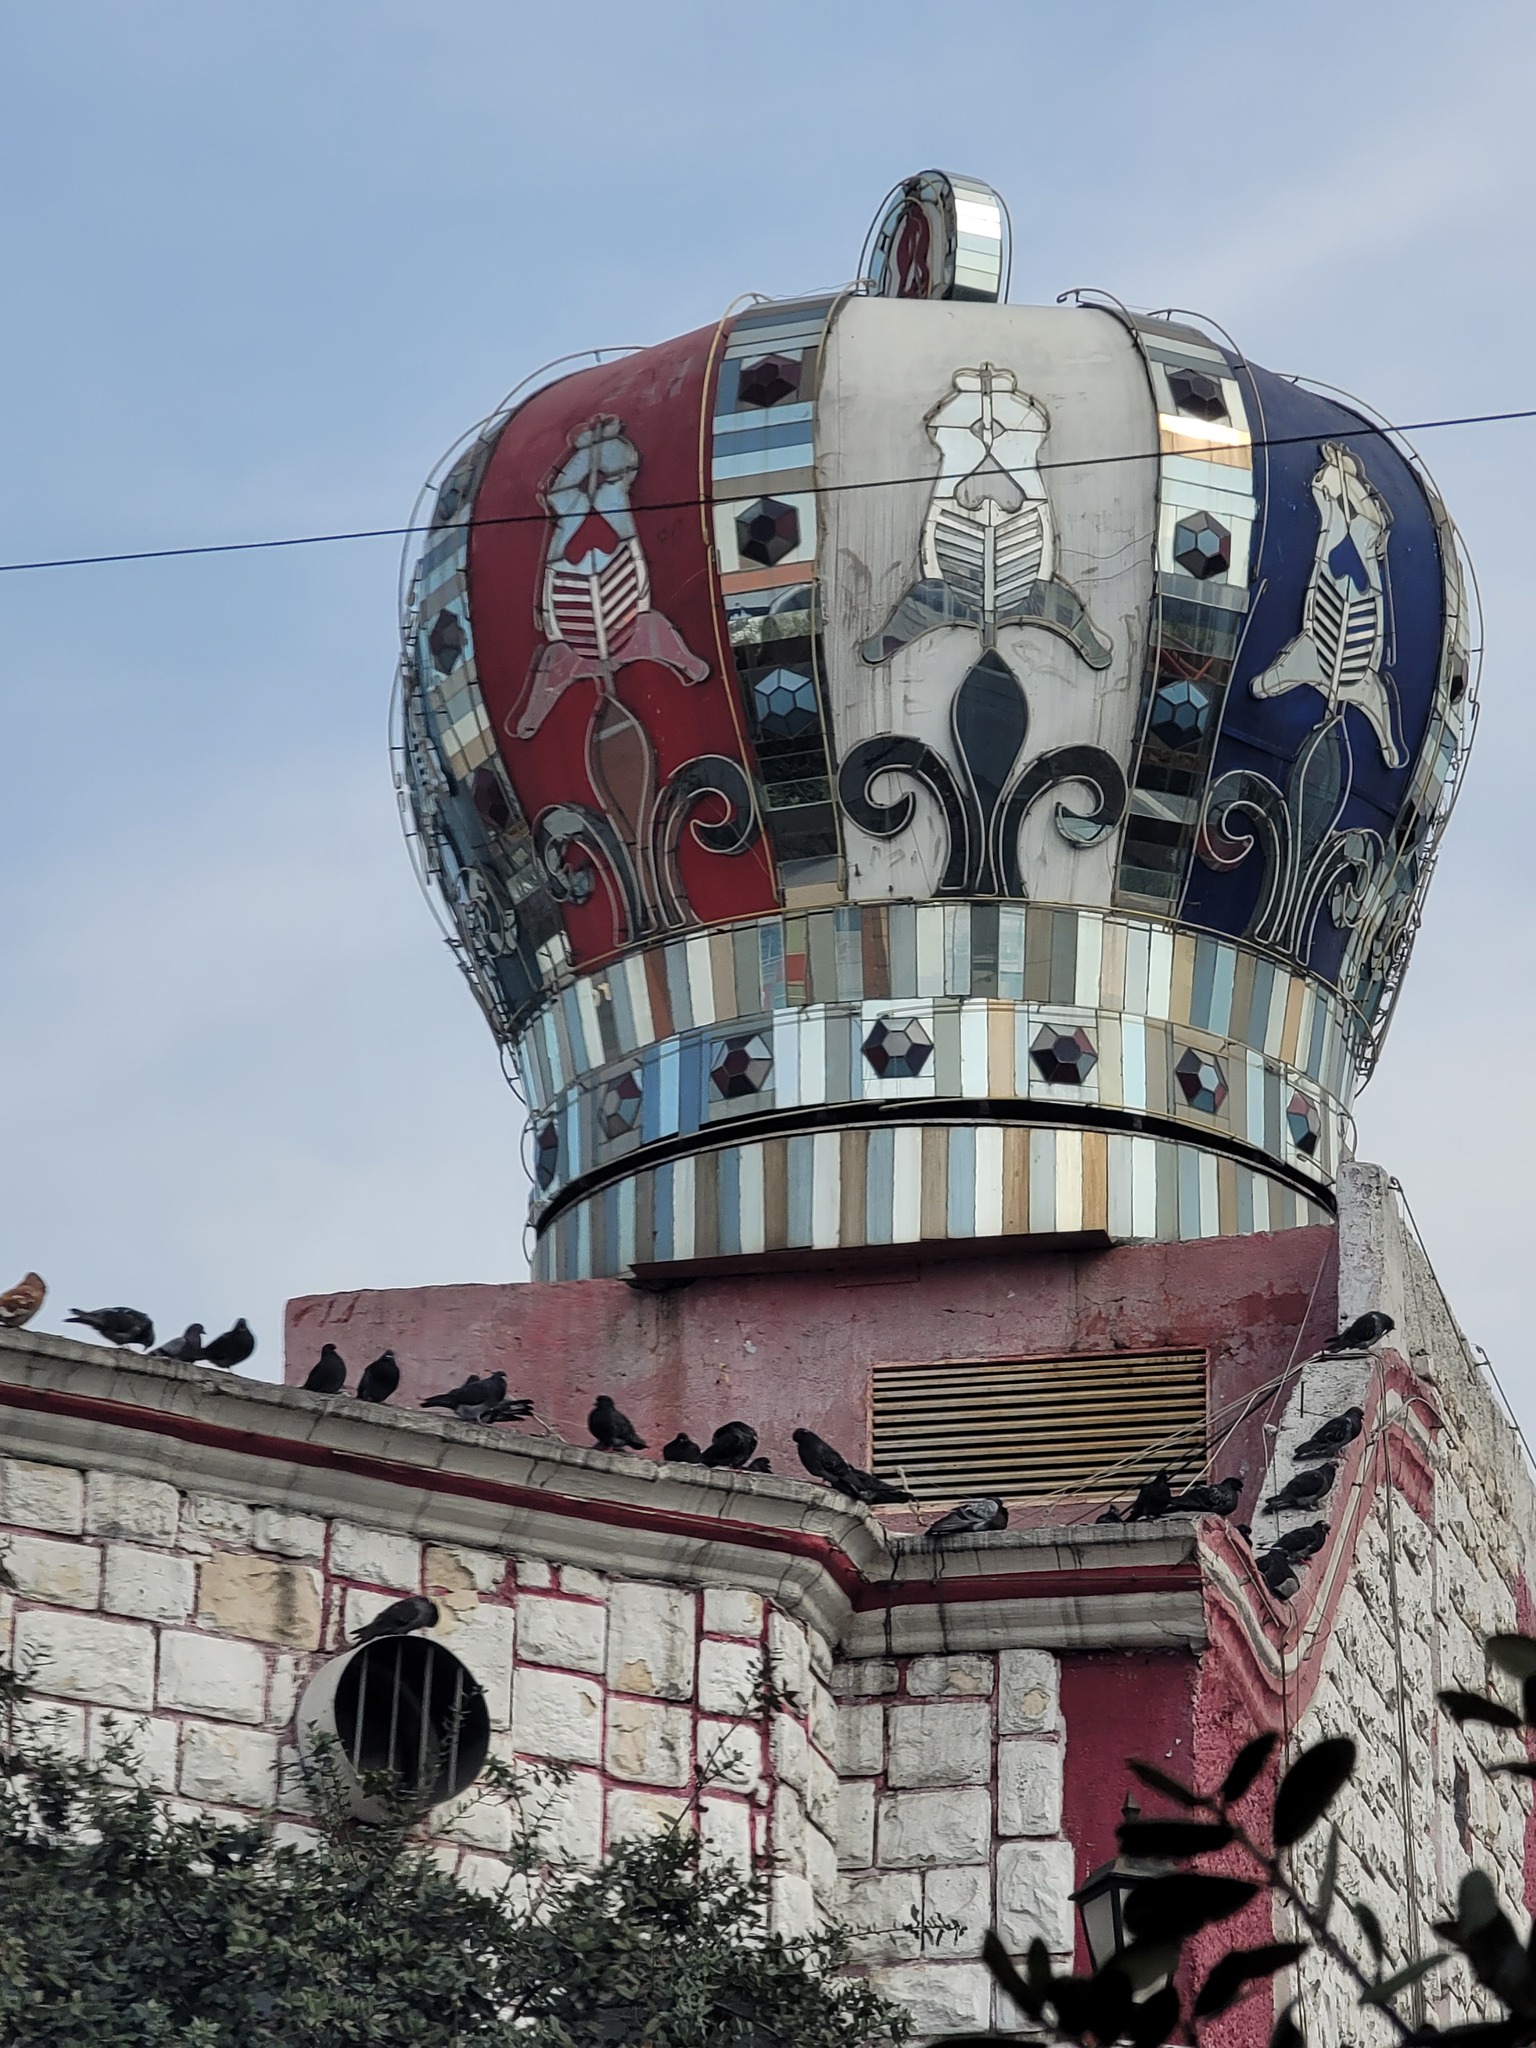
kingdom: Animalia
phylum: Chordata
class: Aves
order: Columbiformes
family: Columbidae
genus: Columba
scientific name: Columba livia
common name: Rock pigeon
